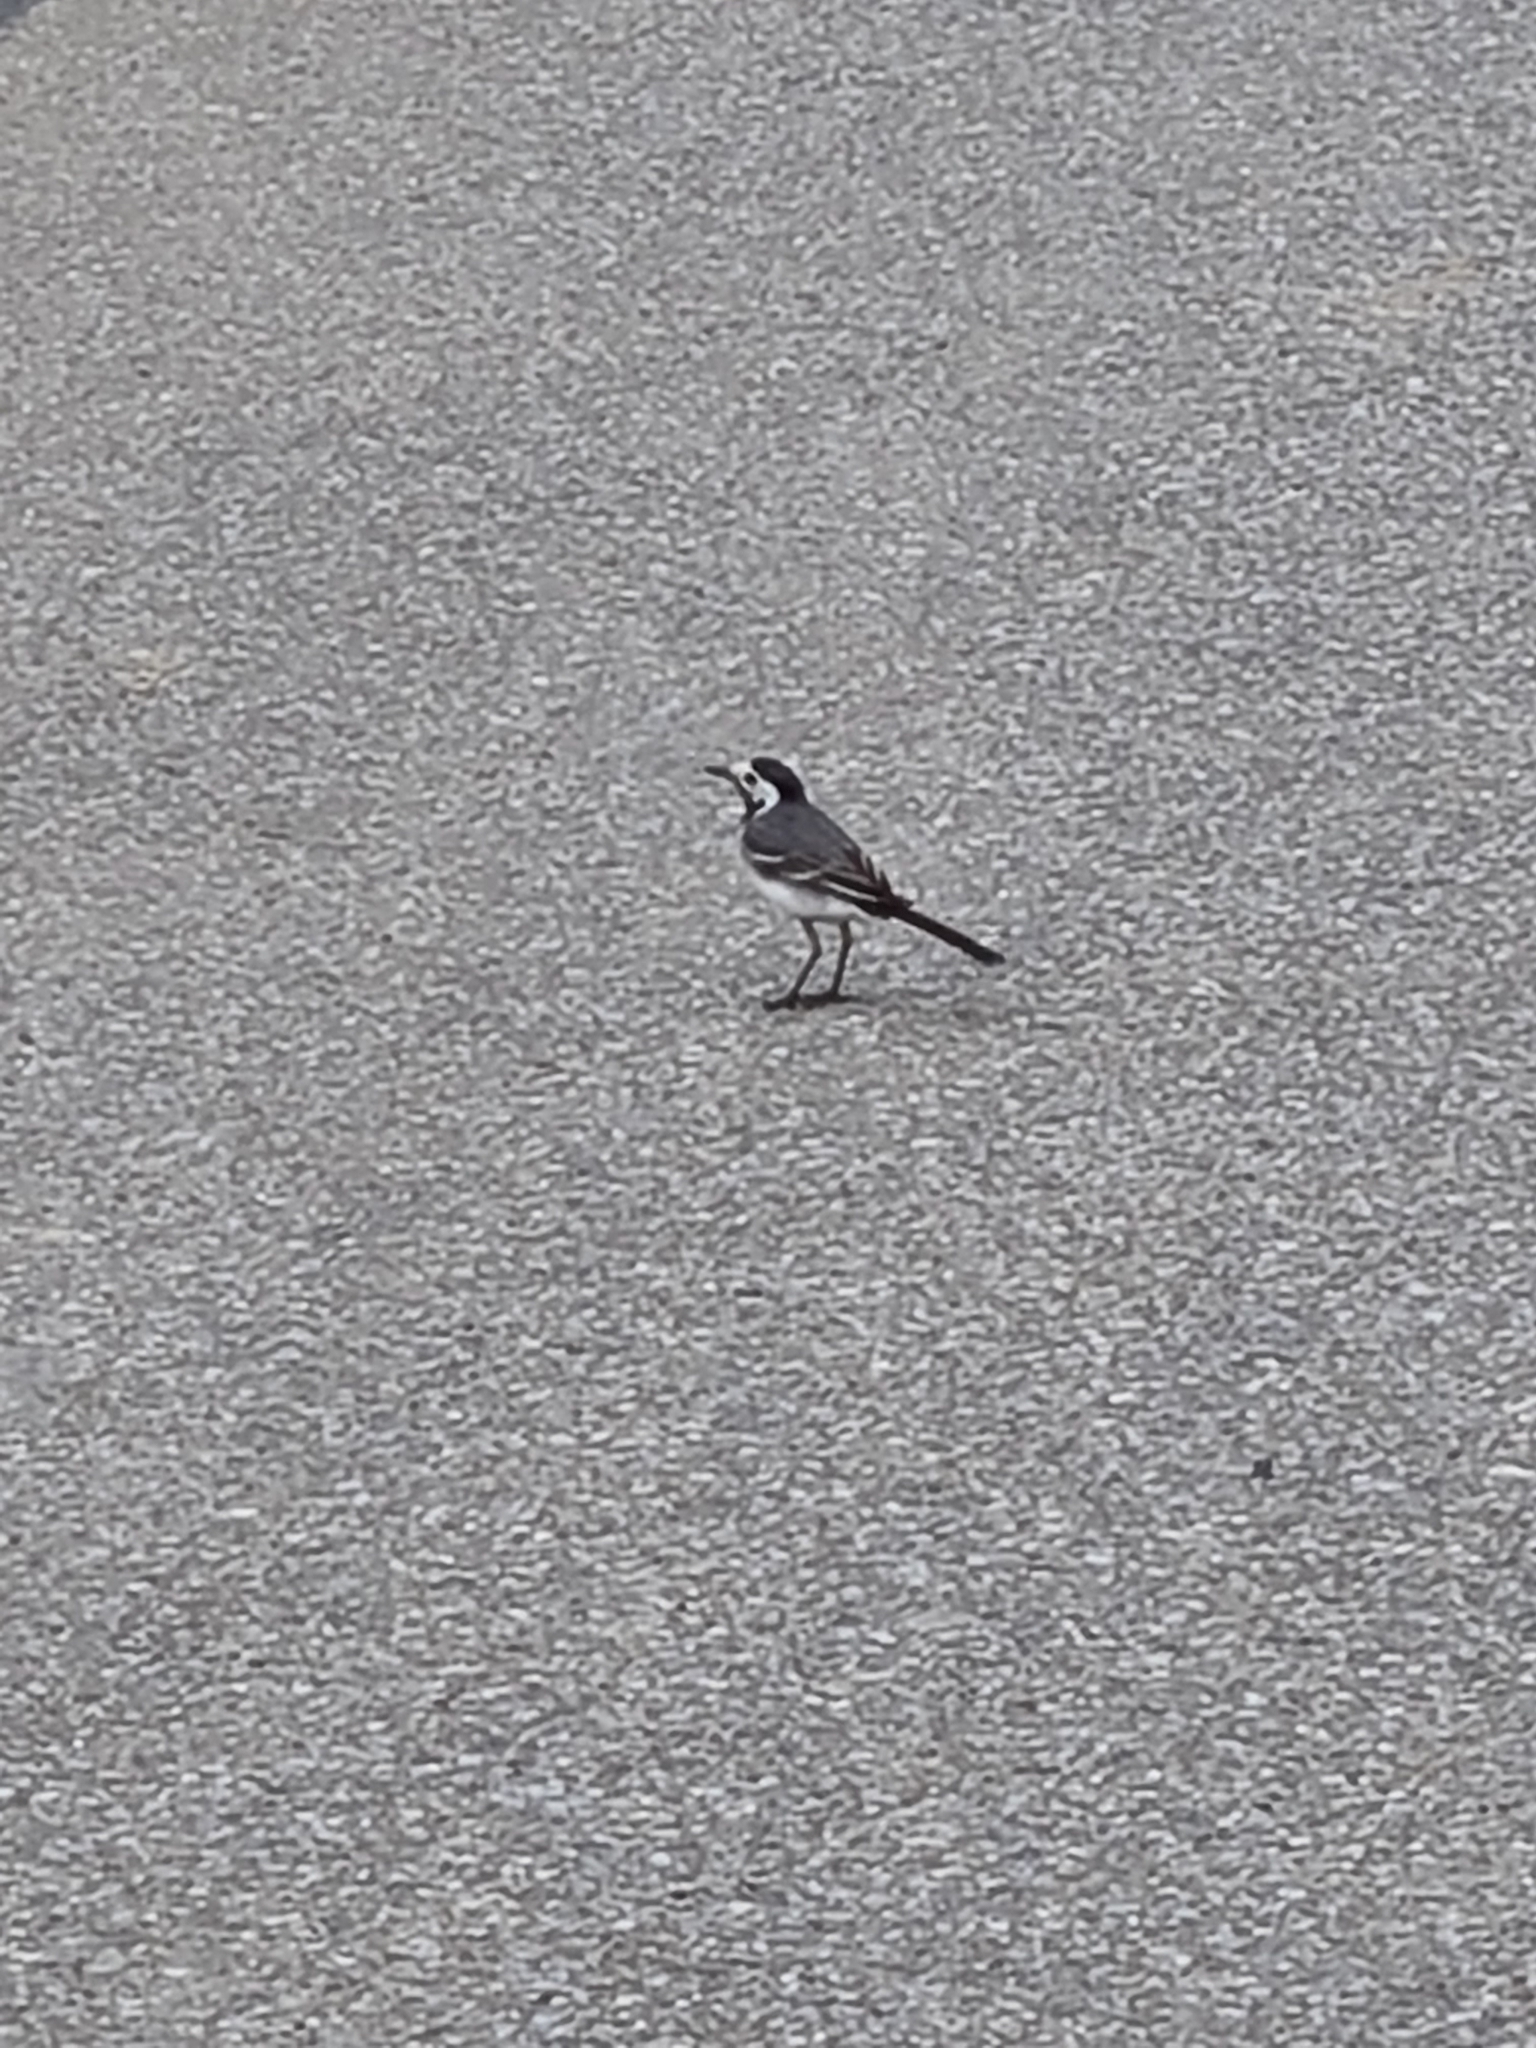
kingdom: Animalia
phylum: Chordata
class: Aves
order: Passeriformes
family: Motacillidae
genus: Motacilla
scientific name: Motacilla alba
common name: White wagtail
